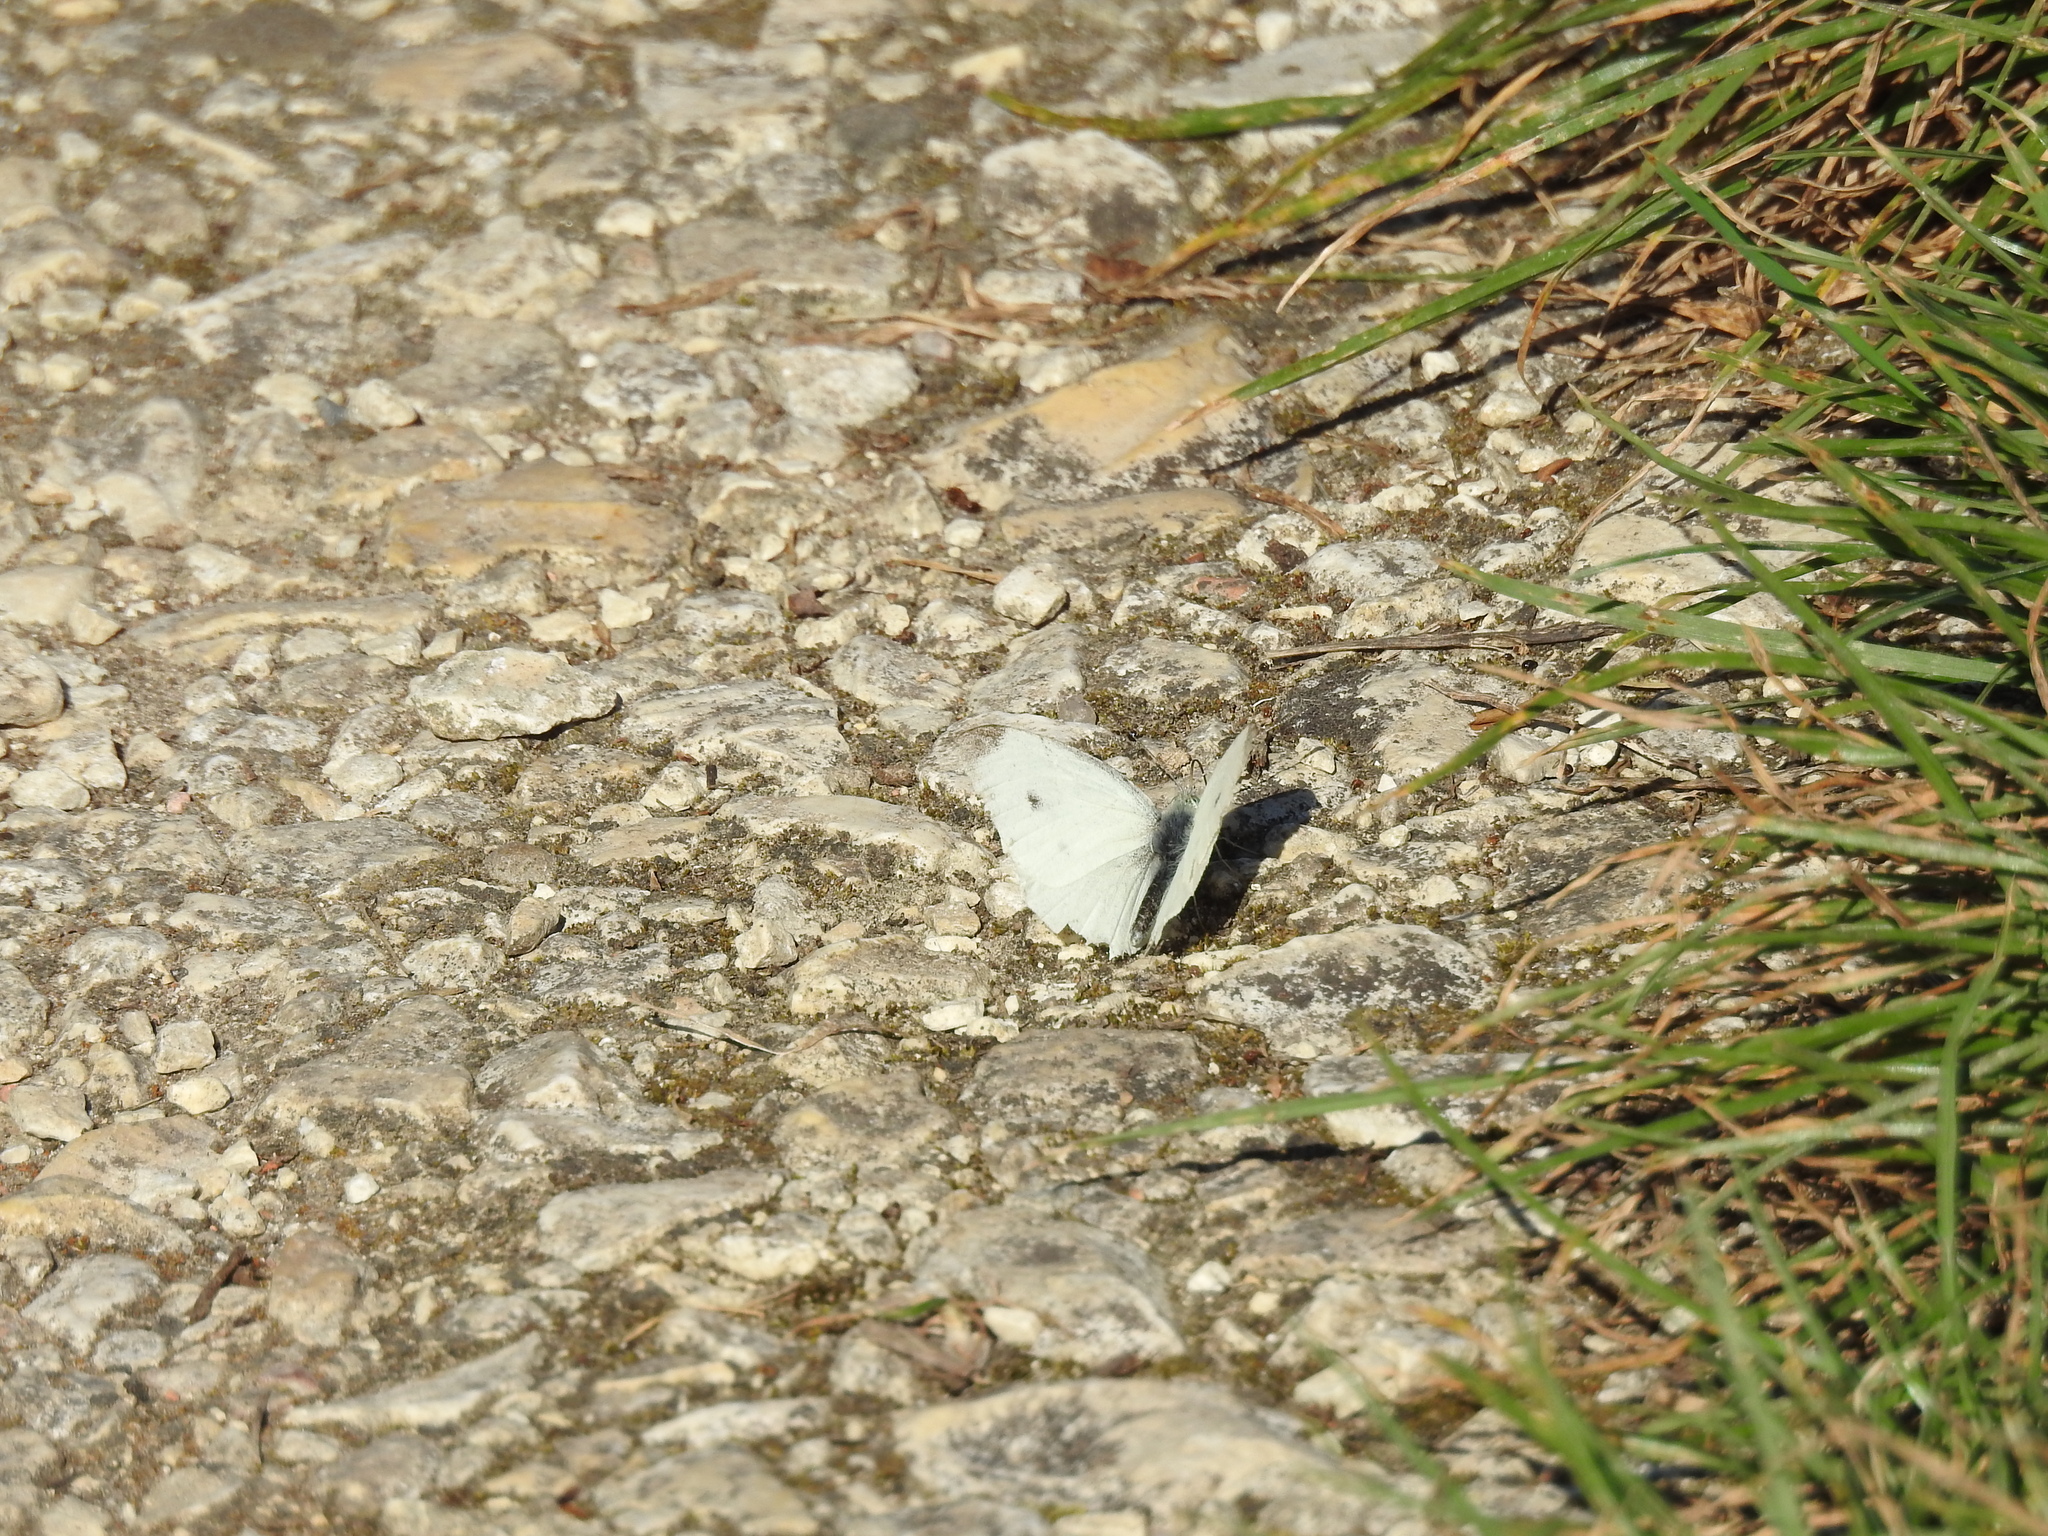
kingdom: Animalia
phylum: Arthropoda
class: Insecta
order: Lepidoptera
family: Pieridae
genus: Pieris
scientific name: Pieris rapae
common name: Small white
